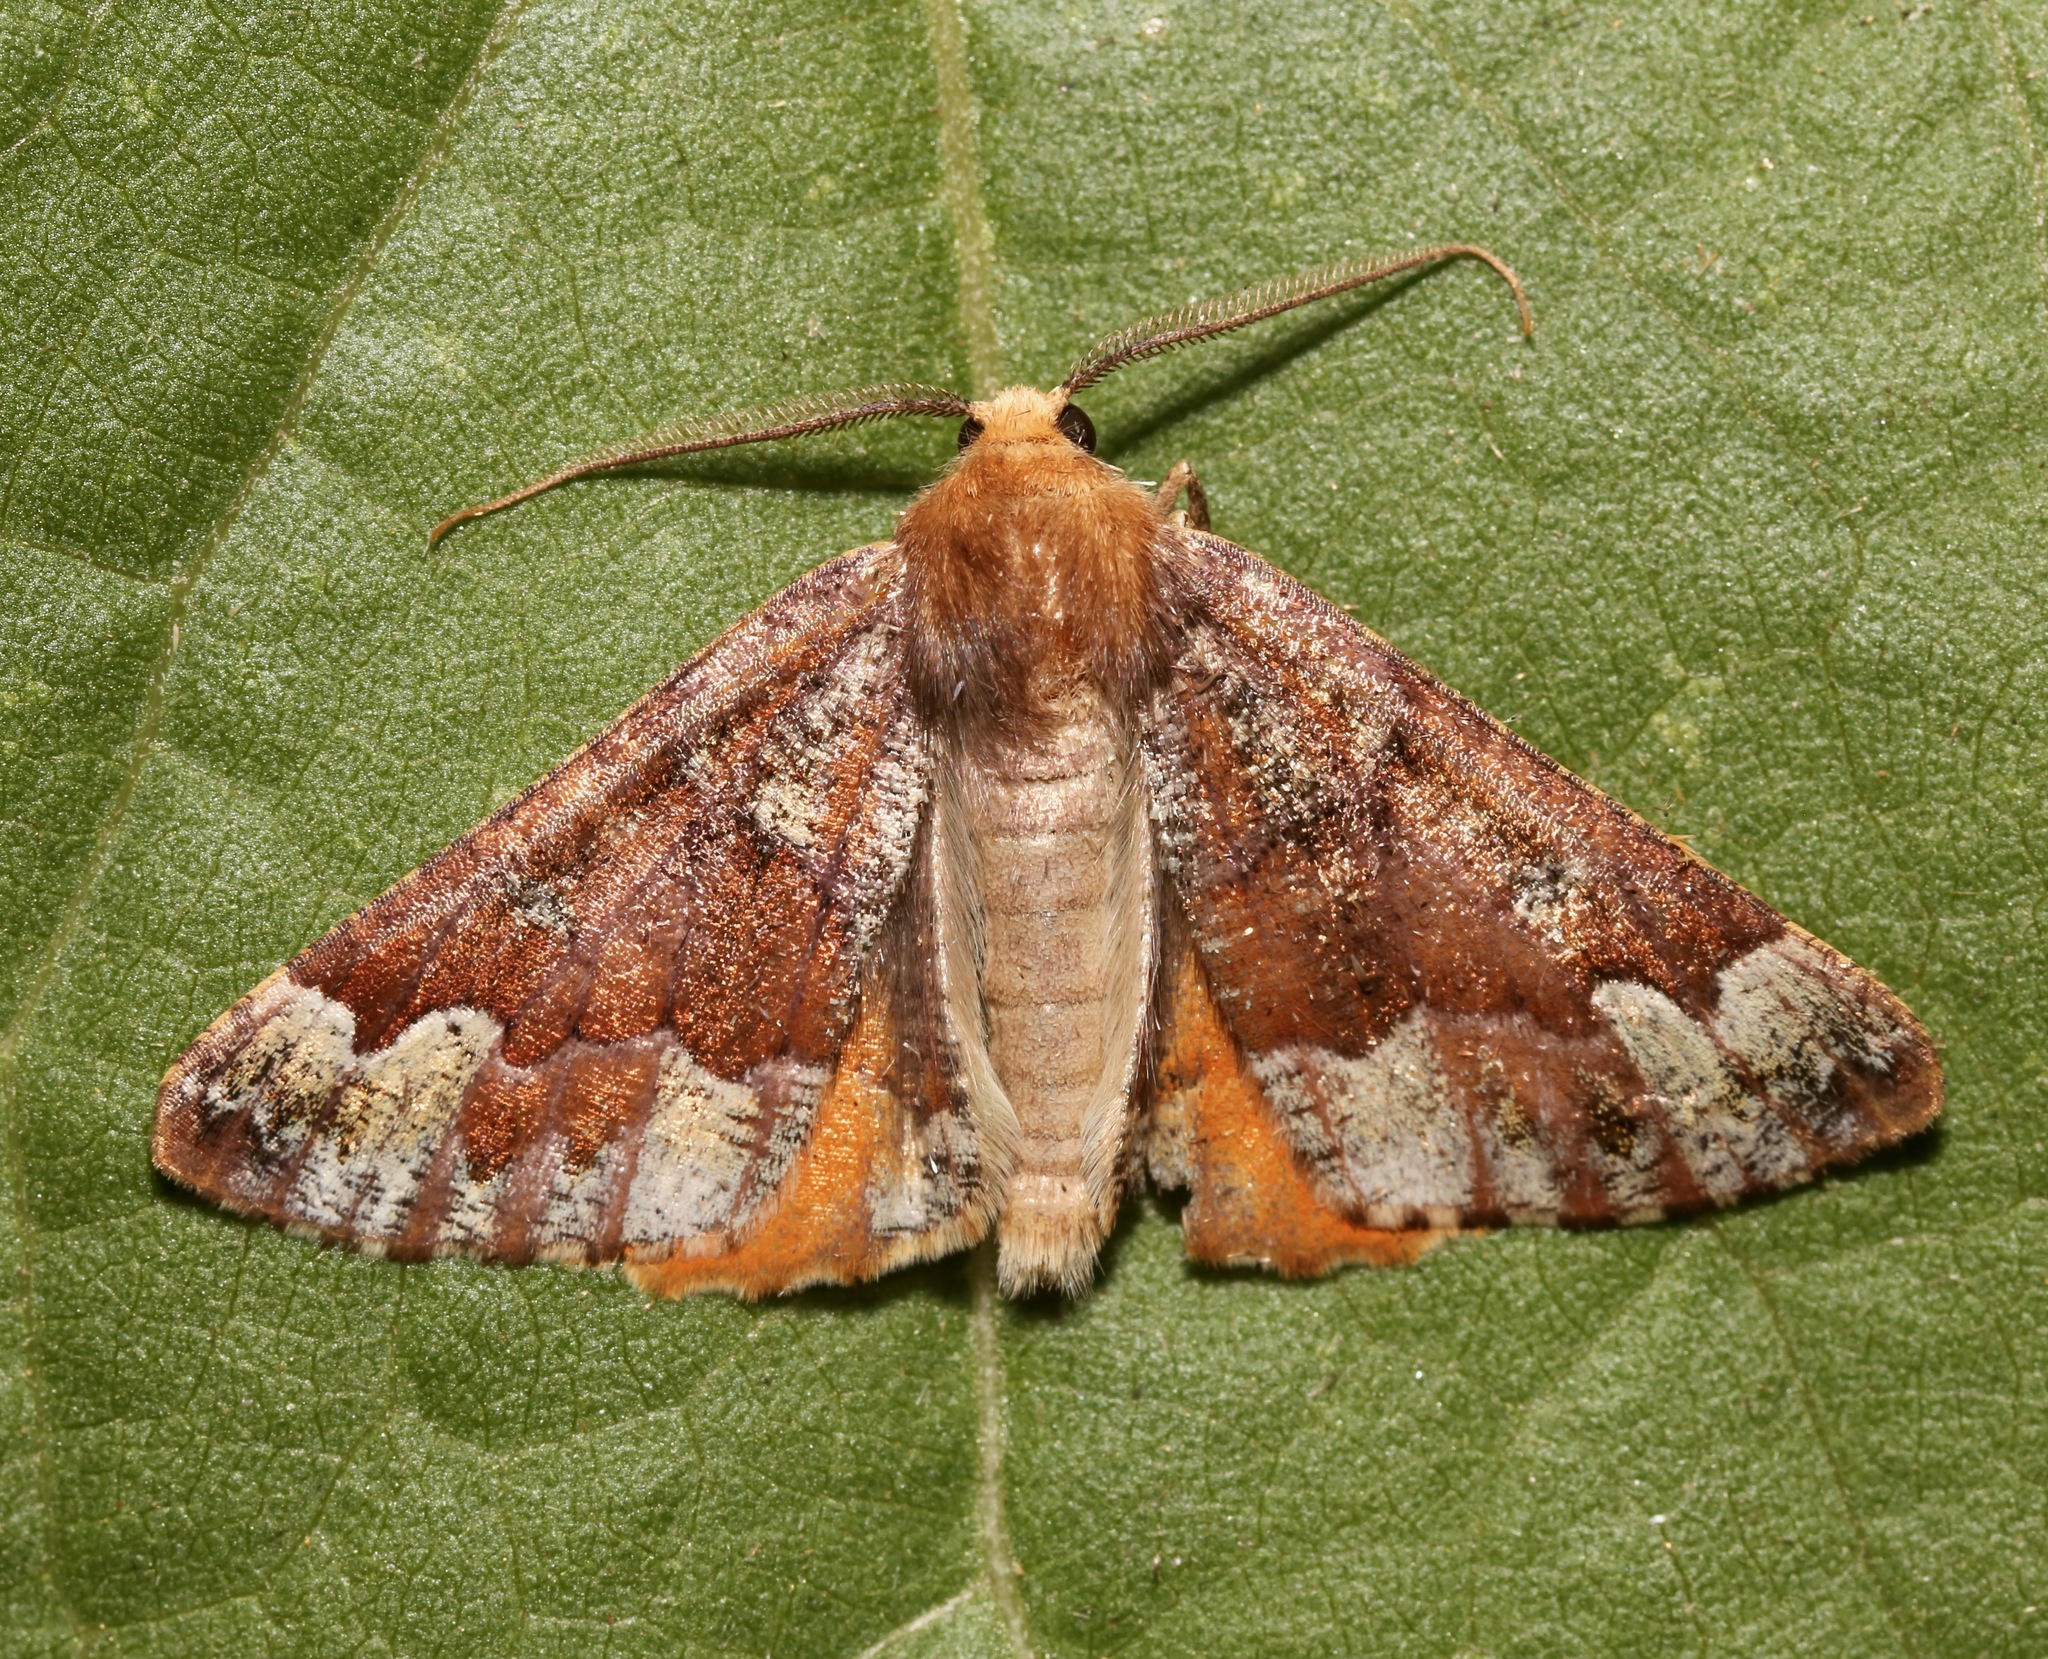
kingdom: Animalia
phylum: Arthropoda
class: Insecta
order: Lepidoptera
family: Geometridae
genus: Caripeta
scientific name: Caripeta pulcherrima
